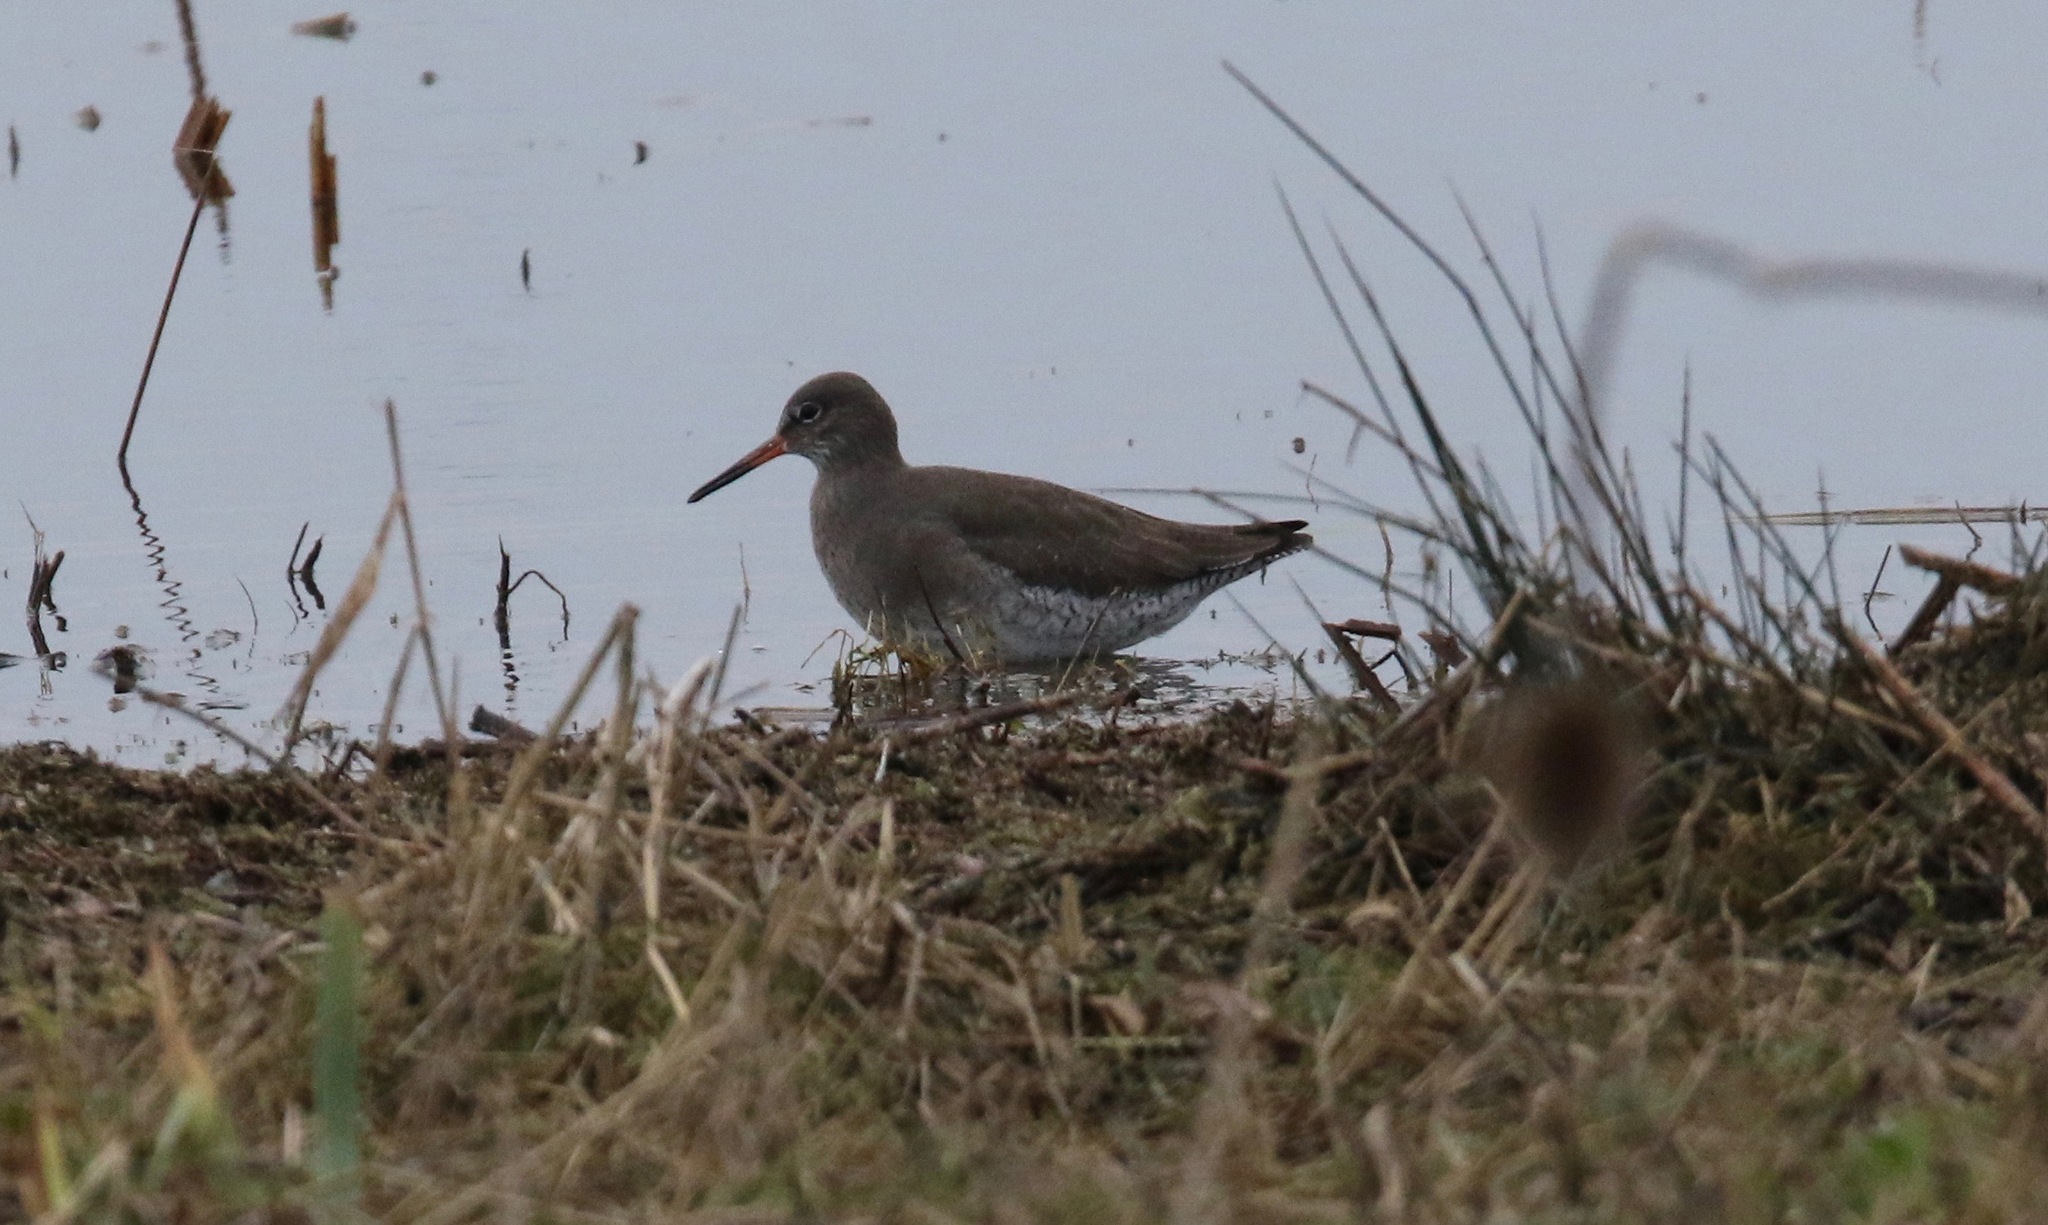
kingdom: Animalia
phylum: Chordata
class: Aves
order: Charadriiformes
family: Scolopacidae
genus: Tringa
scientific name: Tringa totanus
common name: Common redshank
